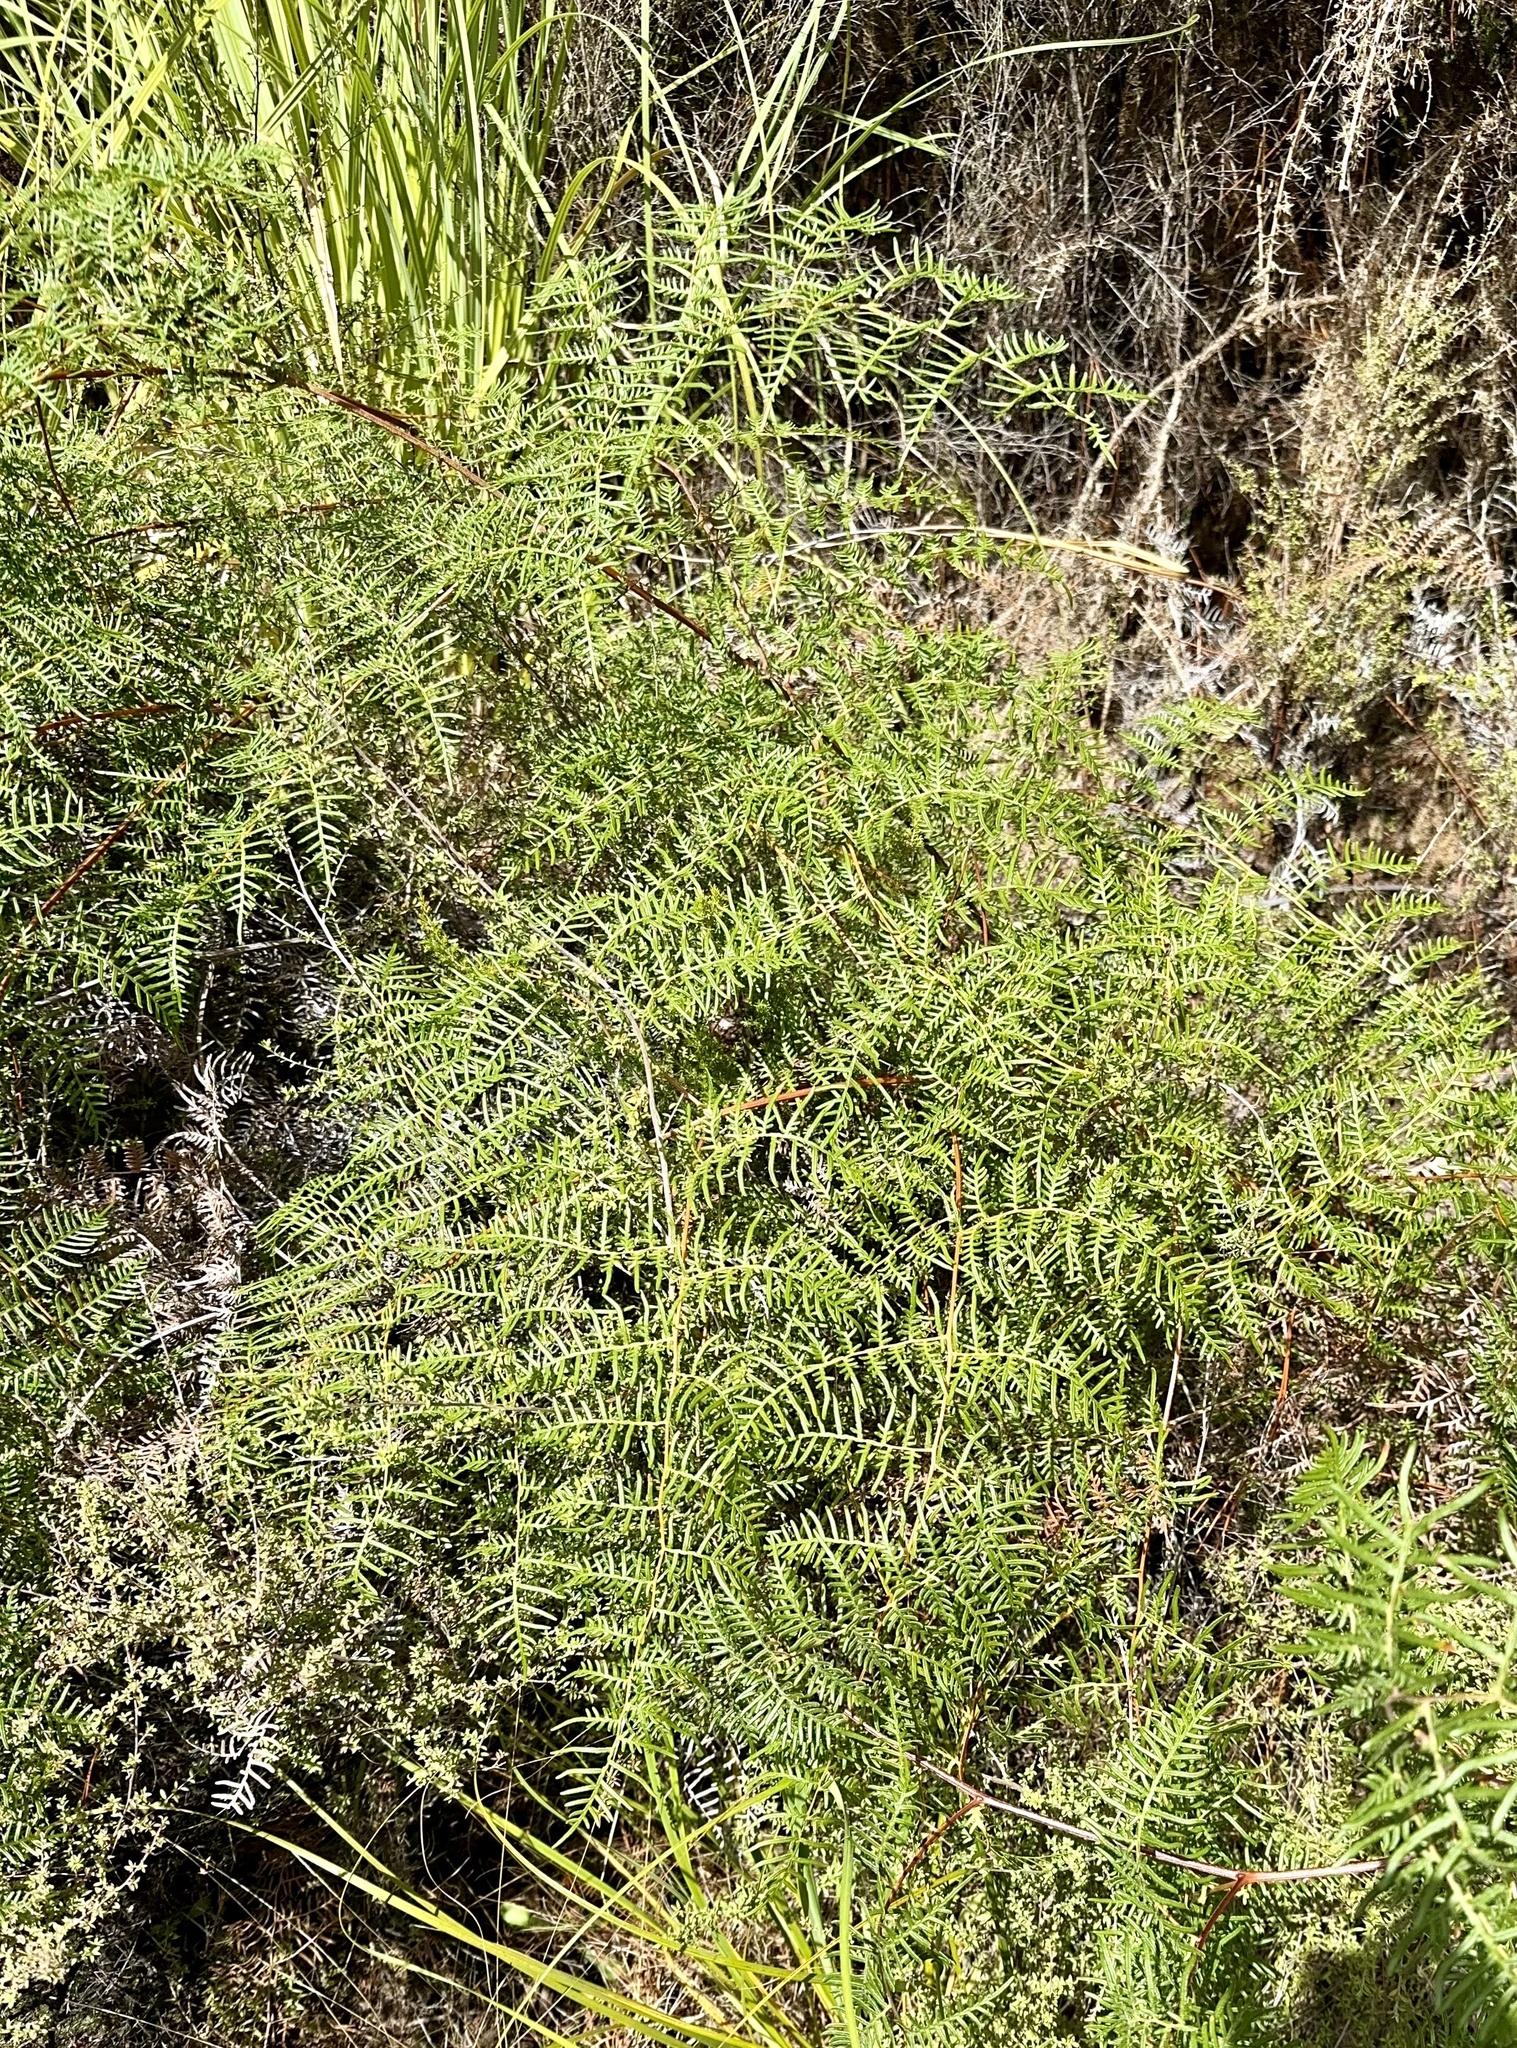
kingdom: Plantae
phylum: Tracheophyta
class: Polypodiopsida
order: Polypodiales
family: Dennstaedtiaceae
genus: Pteridium
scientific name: Pteridium esculentum
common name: Bracken fern
